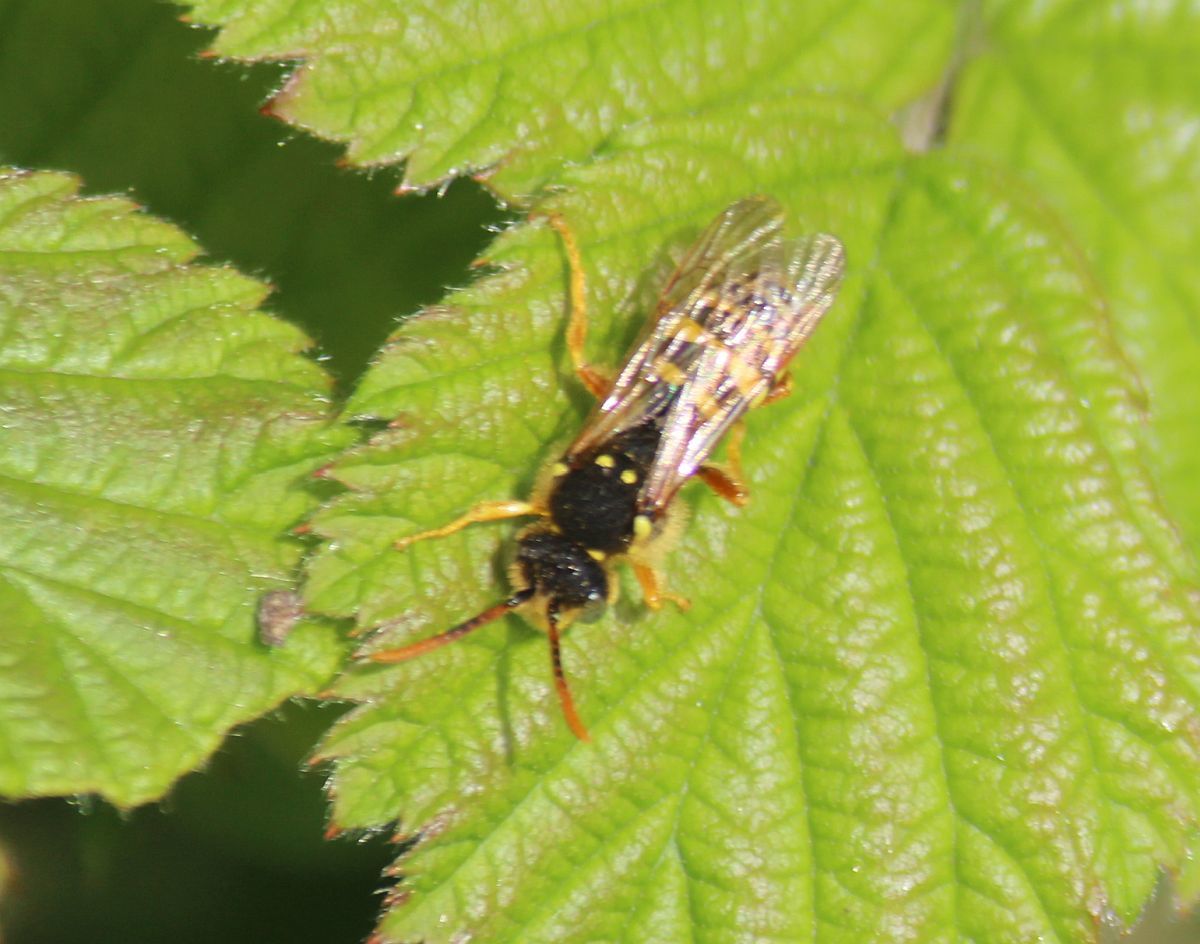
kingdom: Animalia
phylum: Arthropoda
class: Insecta
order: Hymenoptera
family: Apidae
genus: Nomada
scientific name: Nomada goodeniana
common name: Gooden's nomad bee
